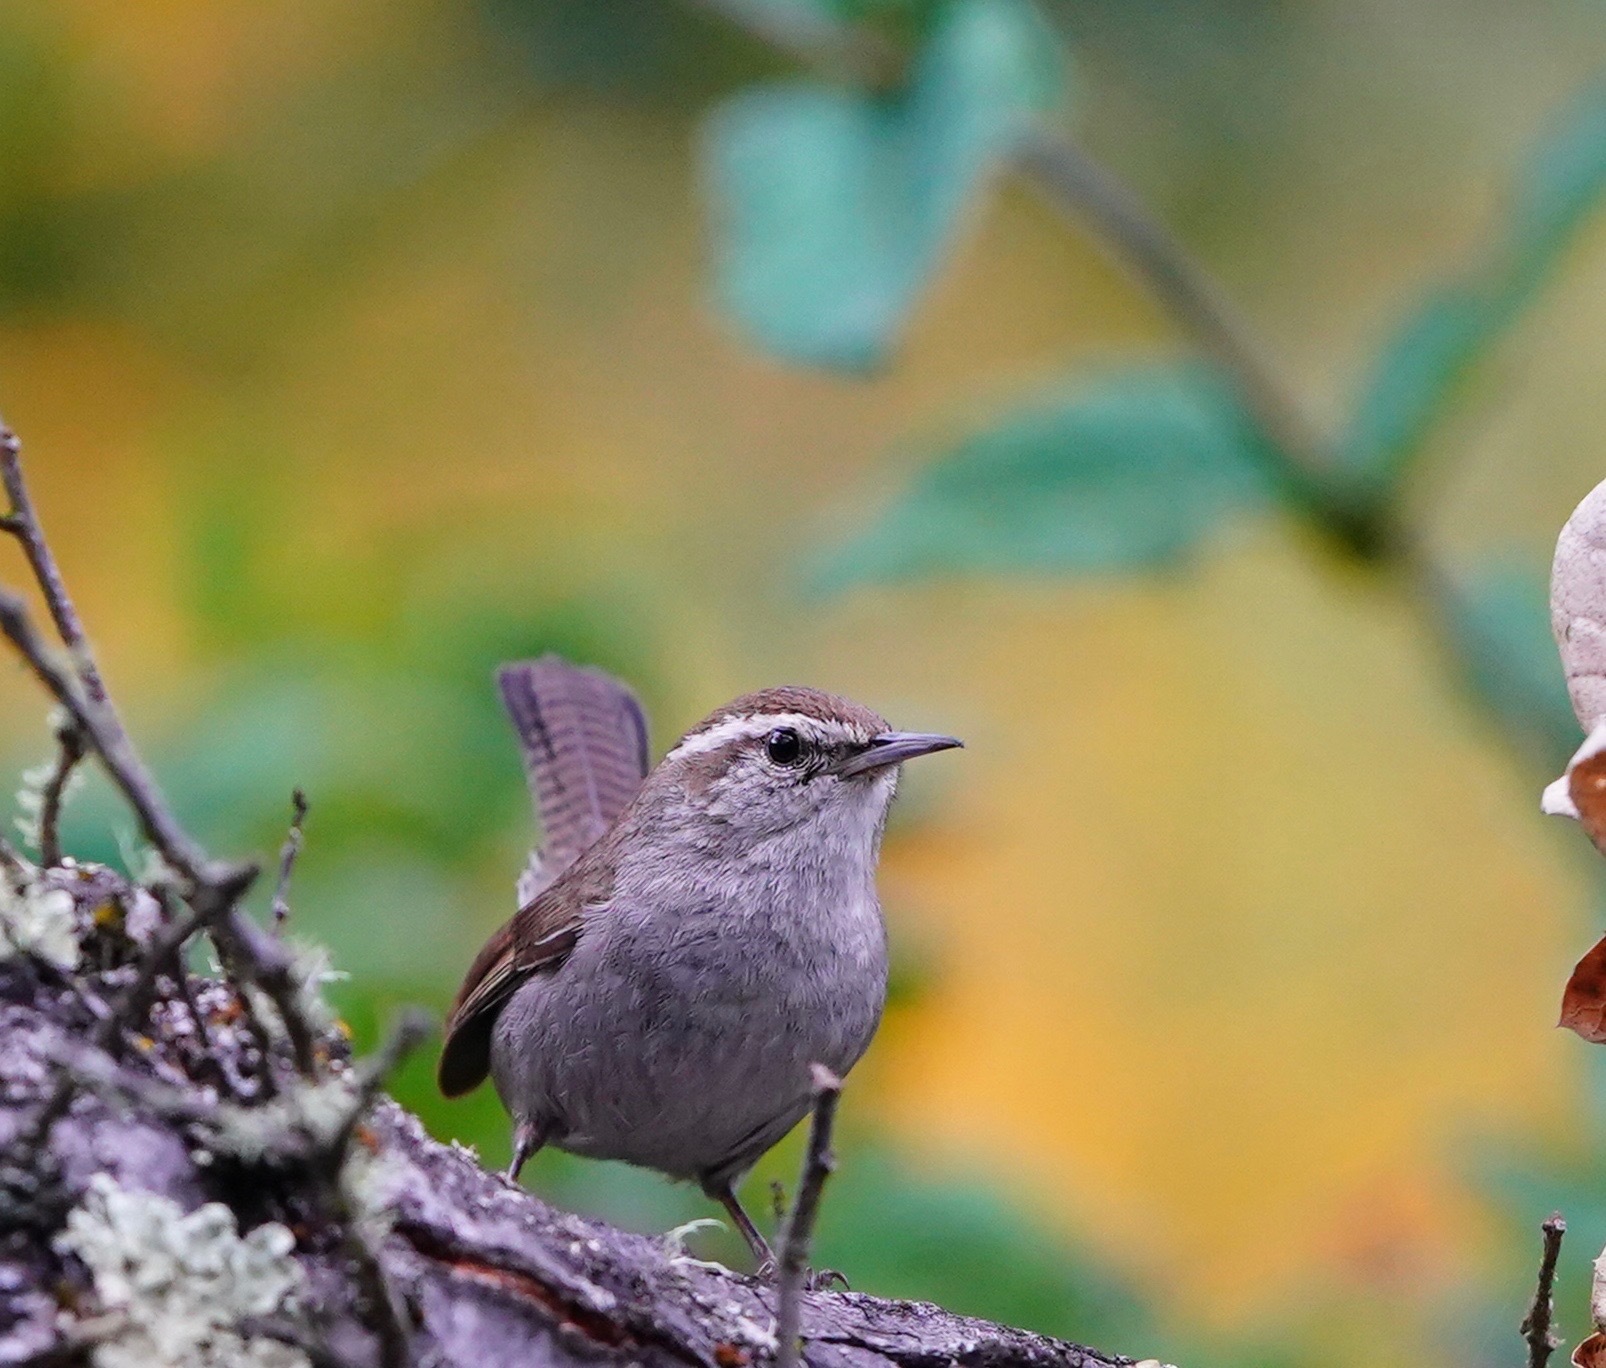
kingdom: Animalia
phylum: Chordata
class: Aves
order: Passeriformes
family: Troglodytidae
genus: Thryomanes
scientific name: Thryomanes bewickii
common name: Bewick's wren
